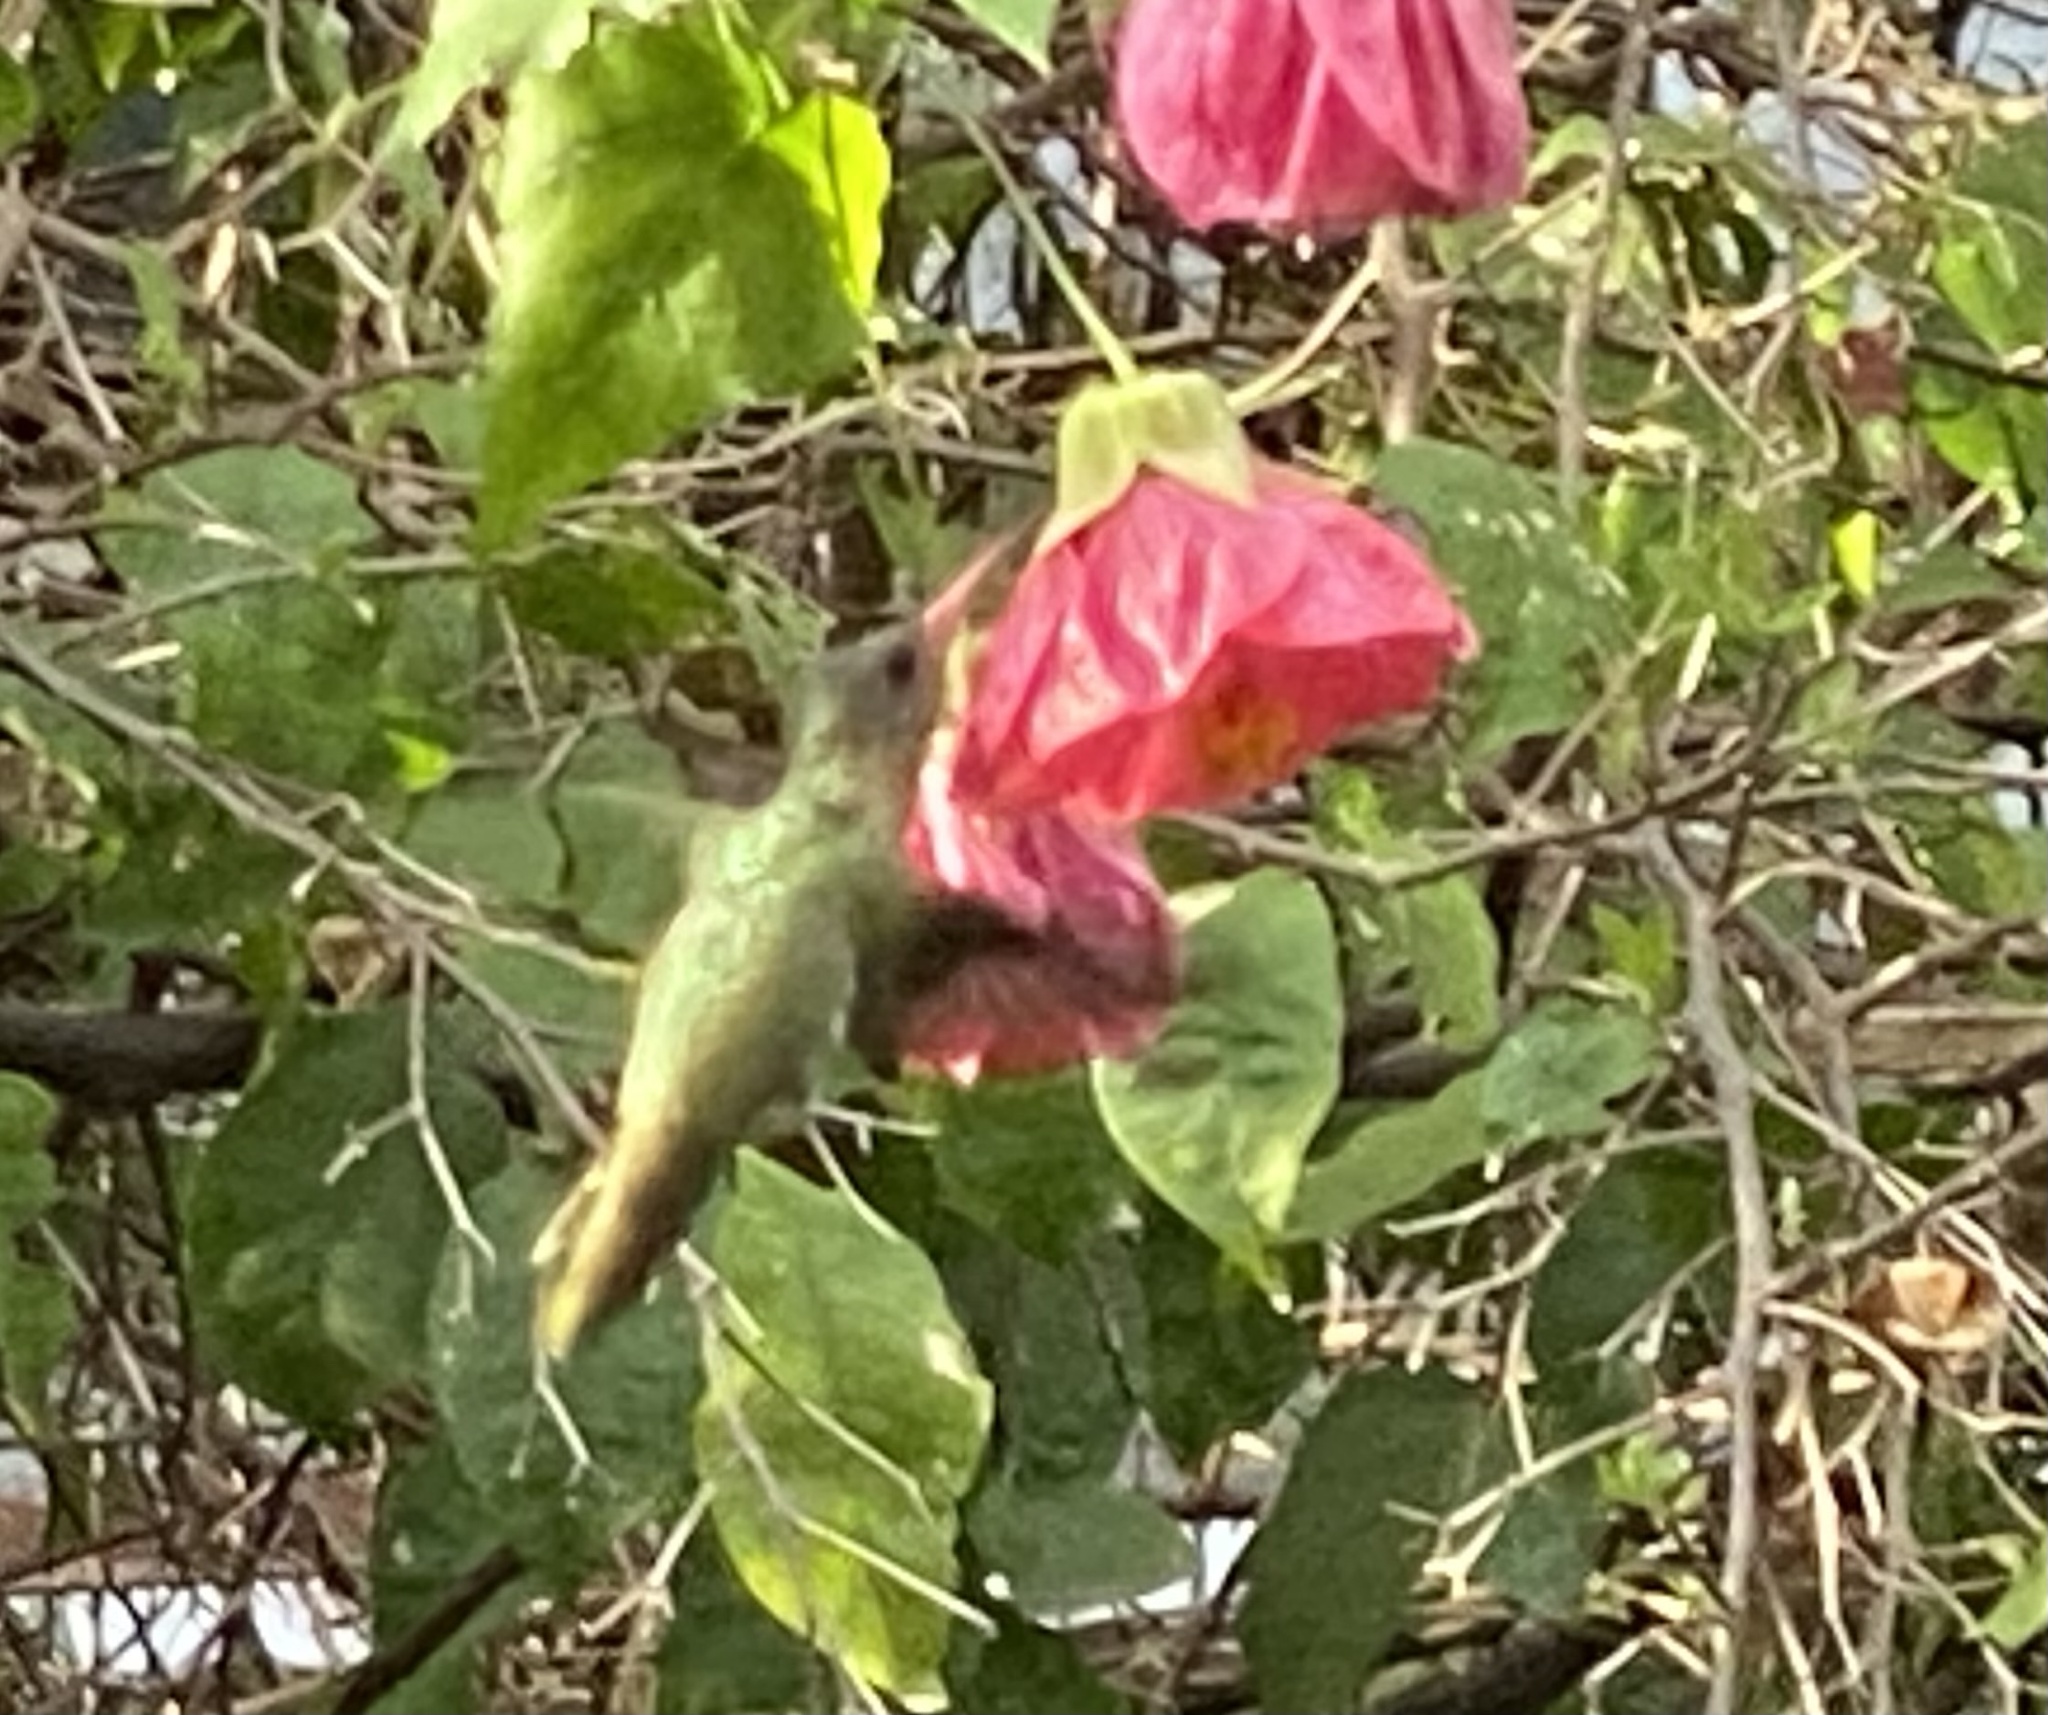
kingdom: Animalia
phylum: Chordata
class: Aves
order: Apodiformes
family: Trochilidae
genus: Hylocharis
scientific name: Hylocharis chrysura
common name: Gilded sapphire
